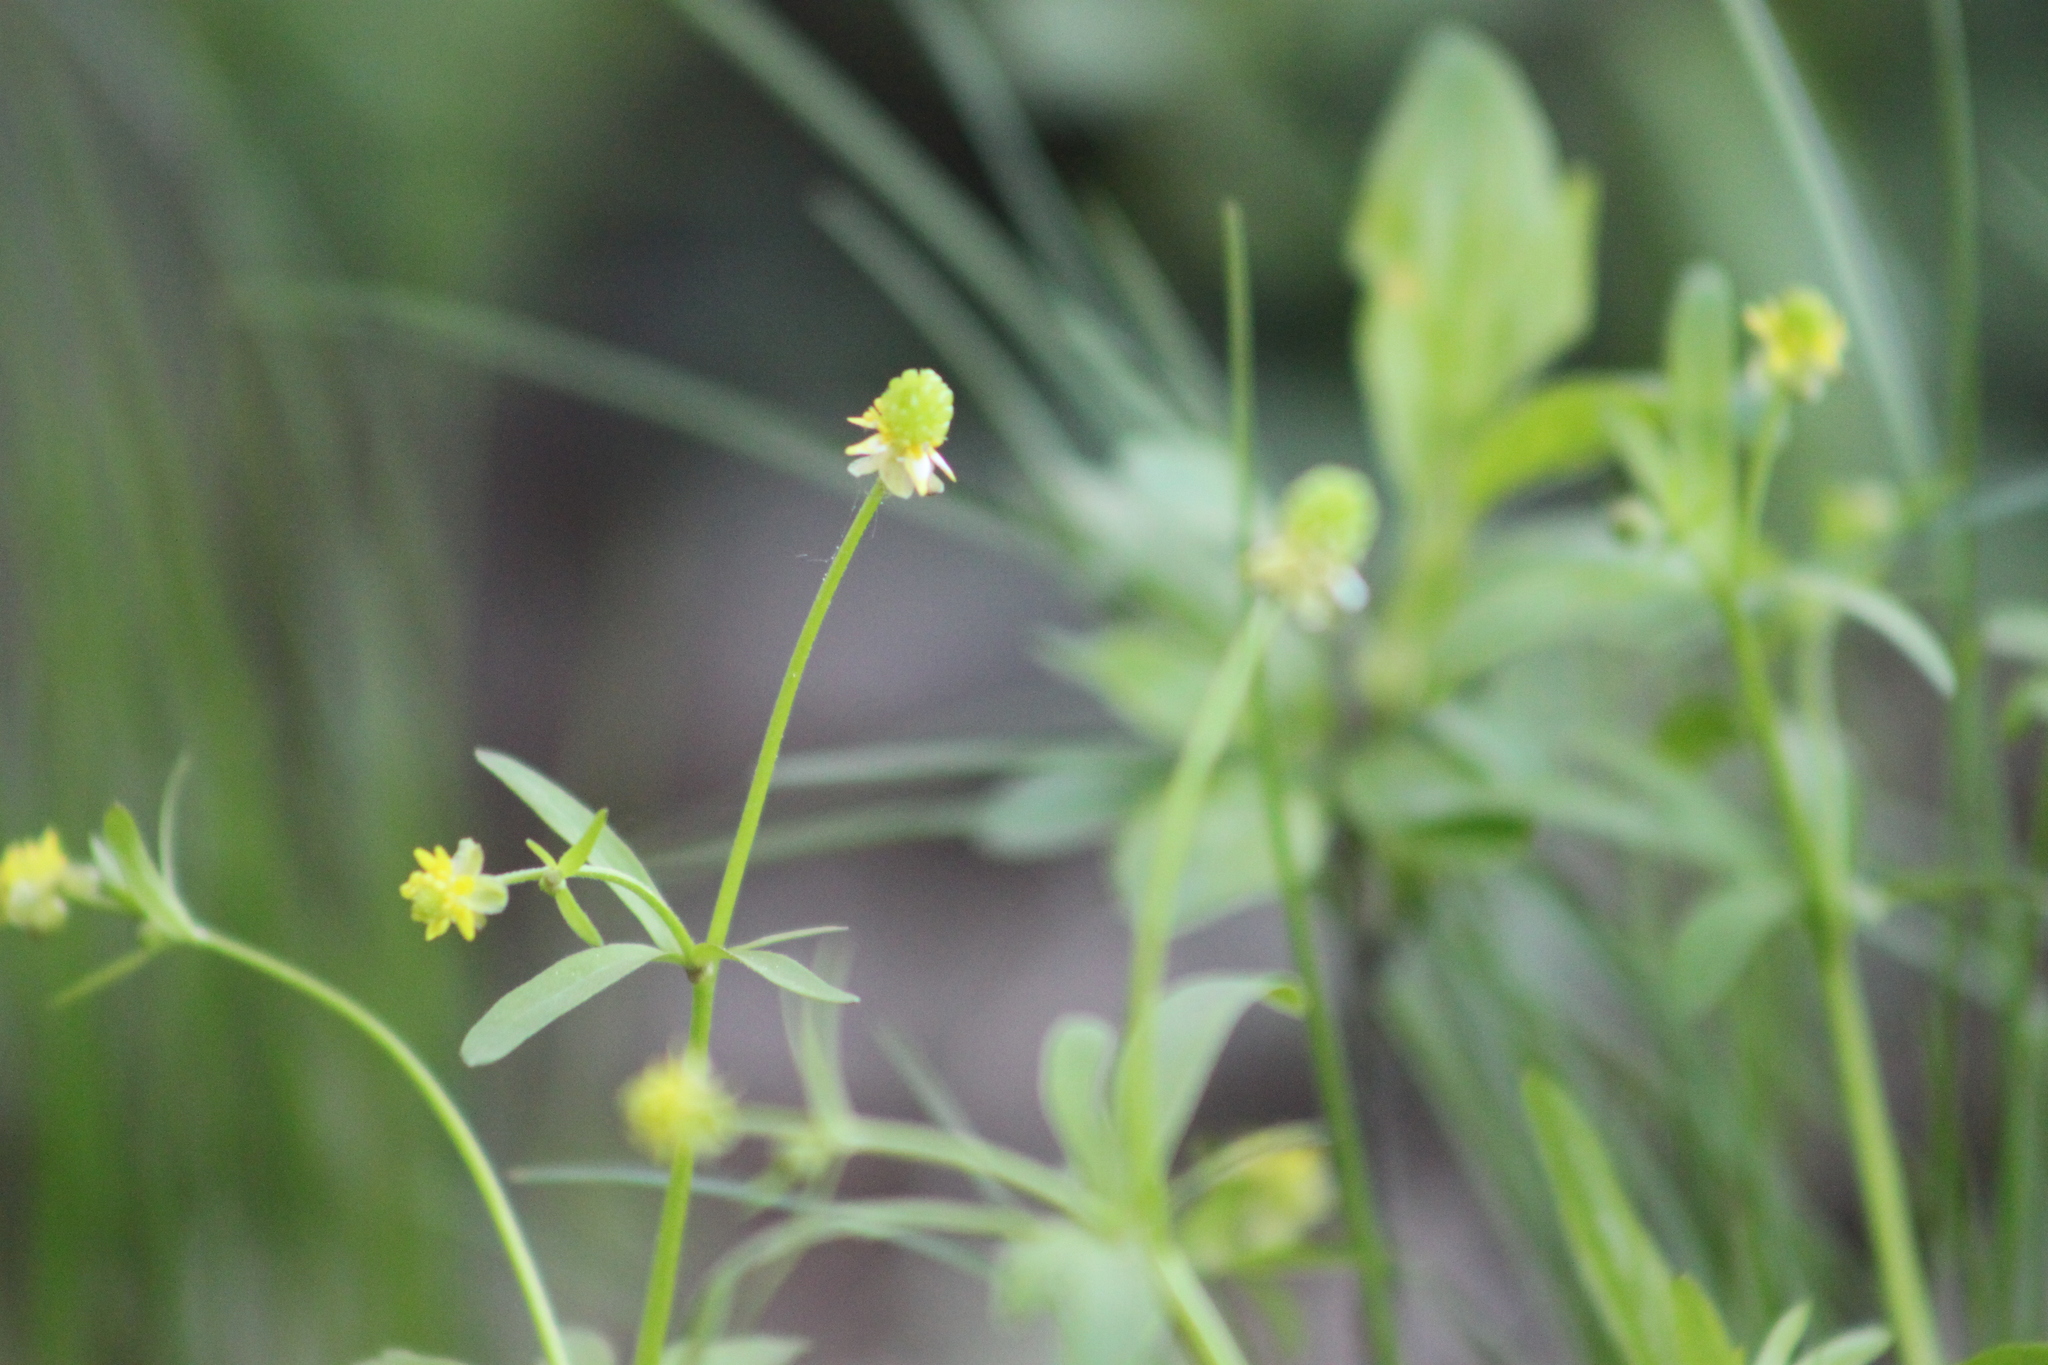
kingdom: Plantae
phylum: Tracheophyta
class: Magnoliopsida
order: Ranunculales
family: Ranunculaceae
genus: Ranunculus
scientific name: Ranunculus abortivus
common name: Early wood buttercup
